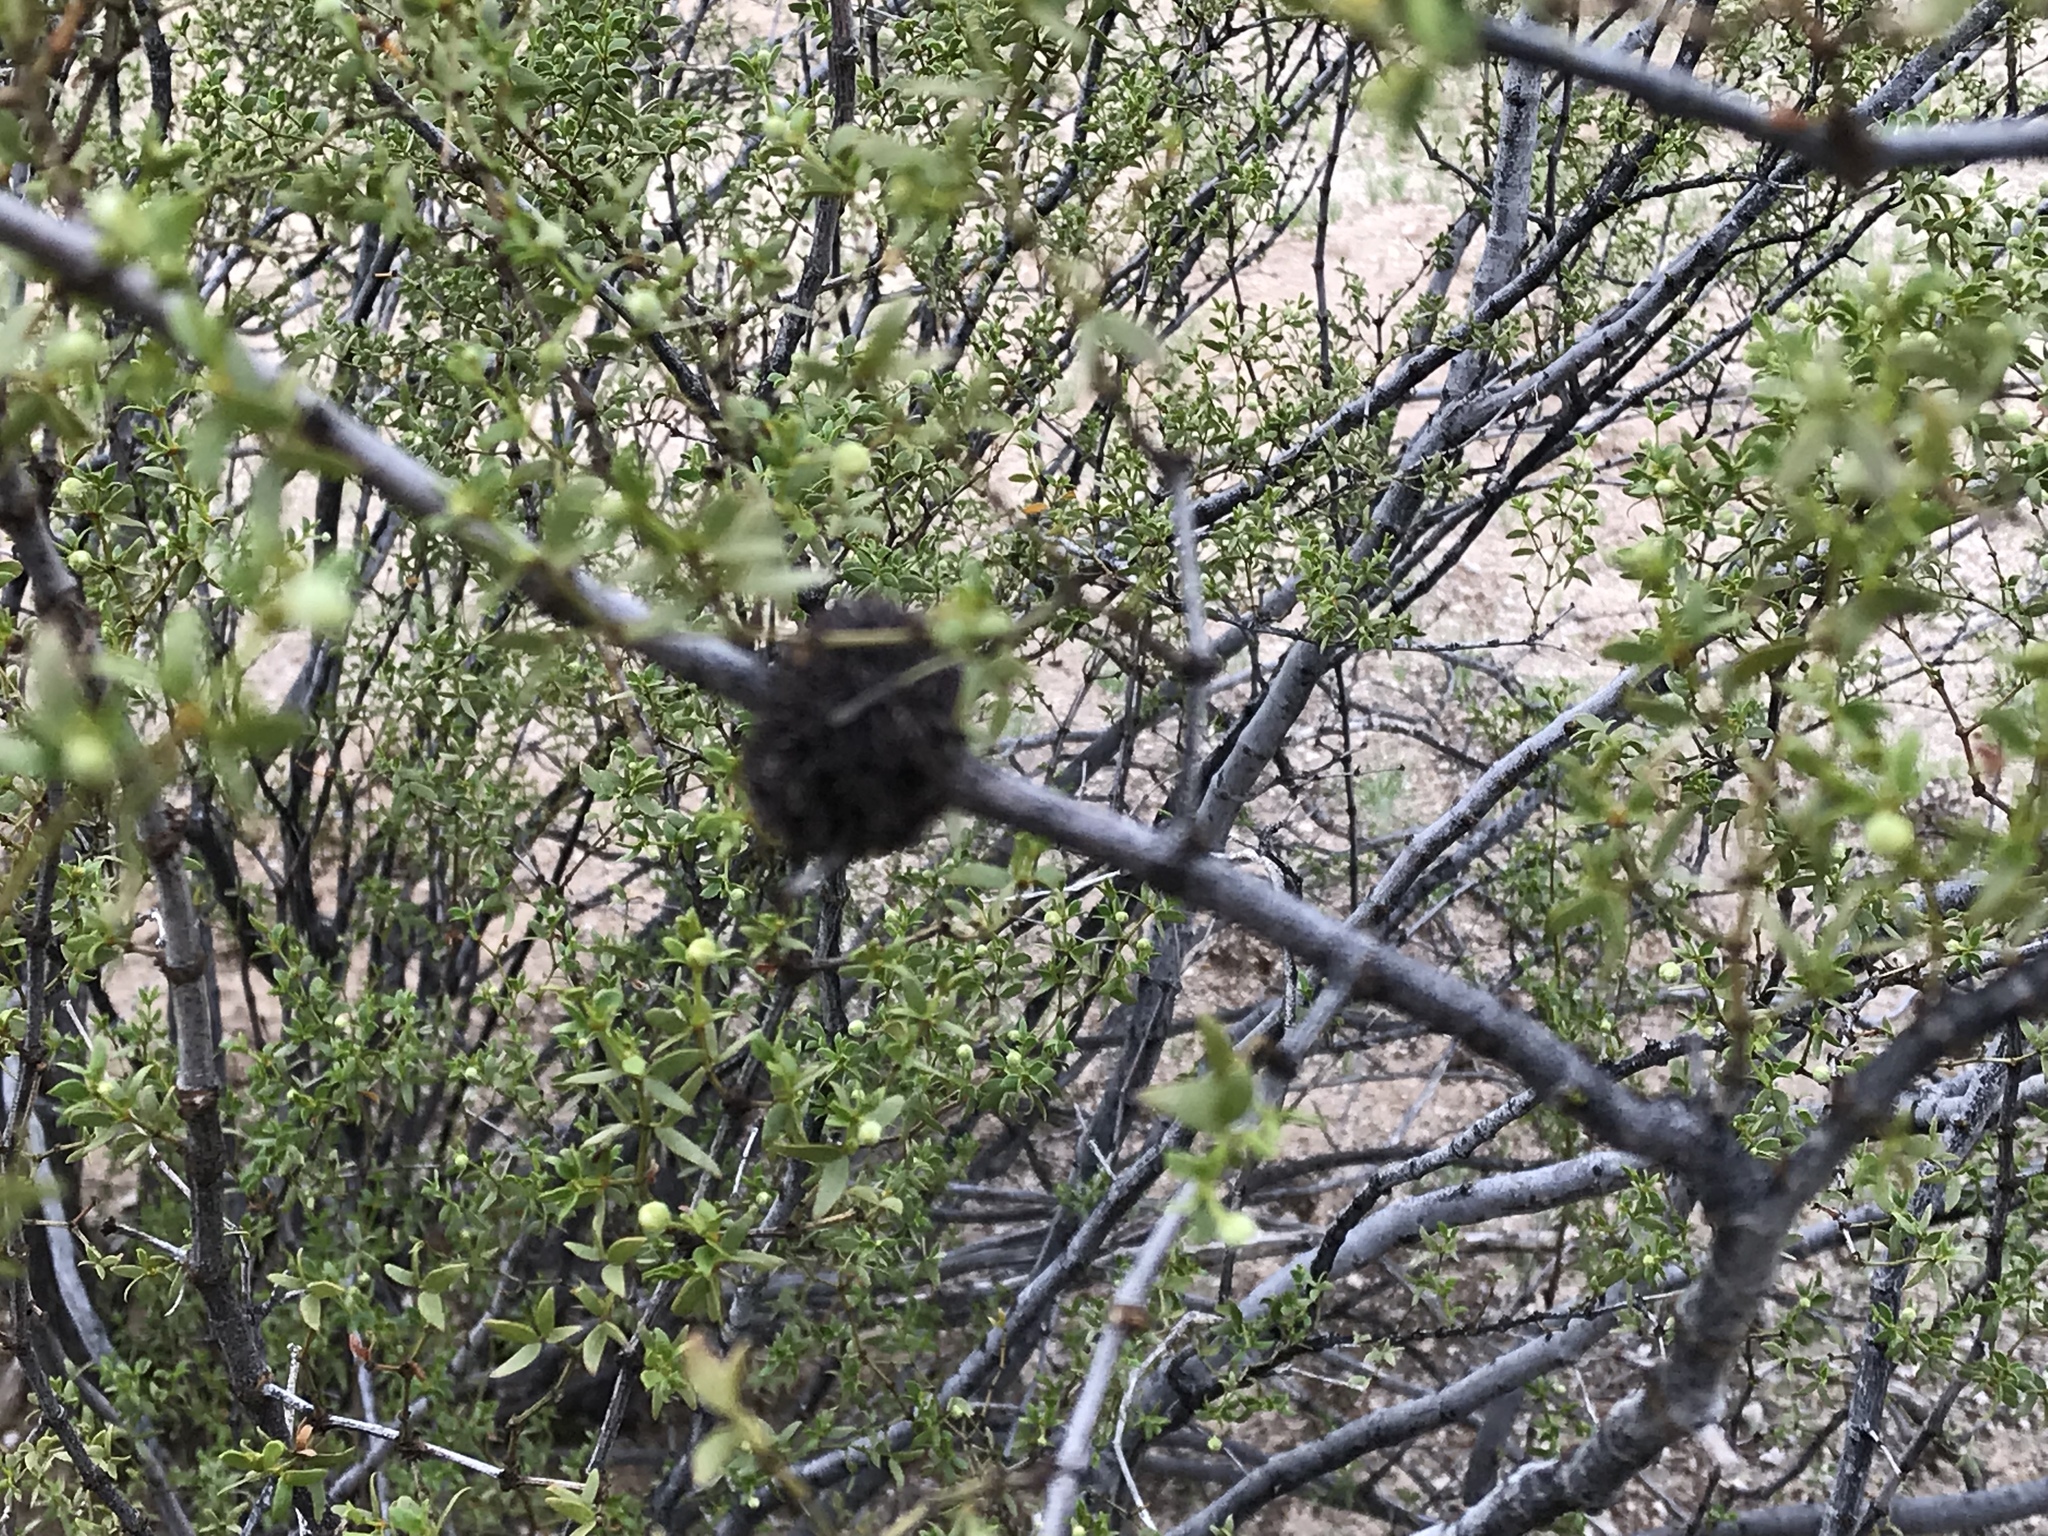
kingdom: Animalia
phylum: Arthropoda
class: Insecta
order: Diptera
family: Cecidomyiidae
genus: Asphondylia
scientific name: Asphondylia auripila
